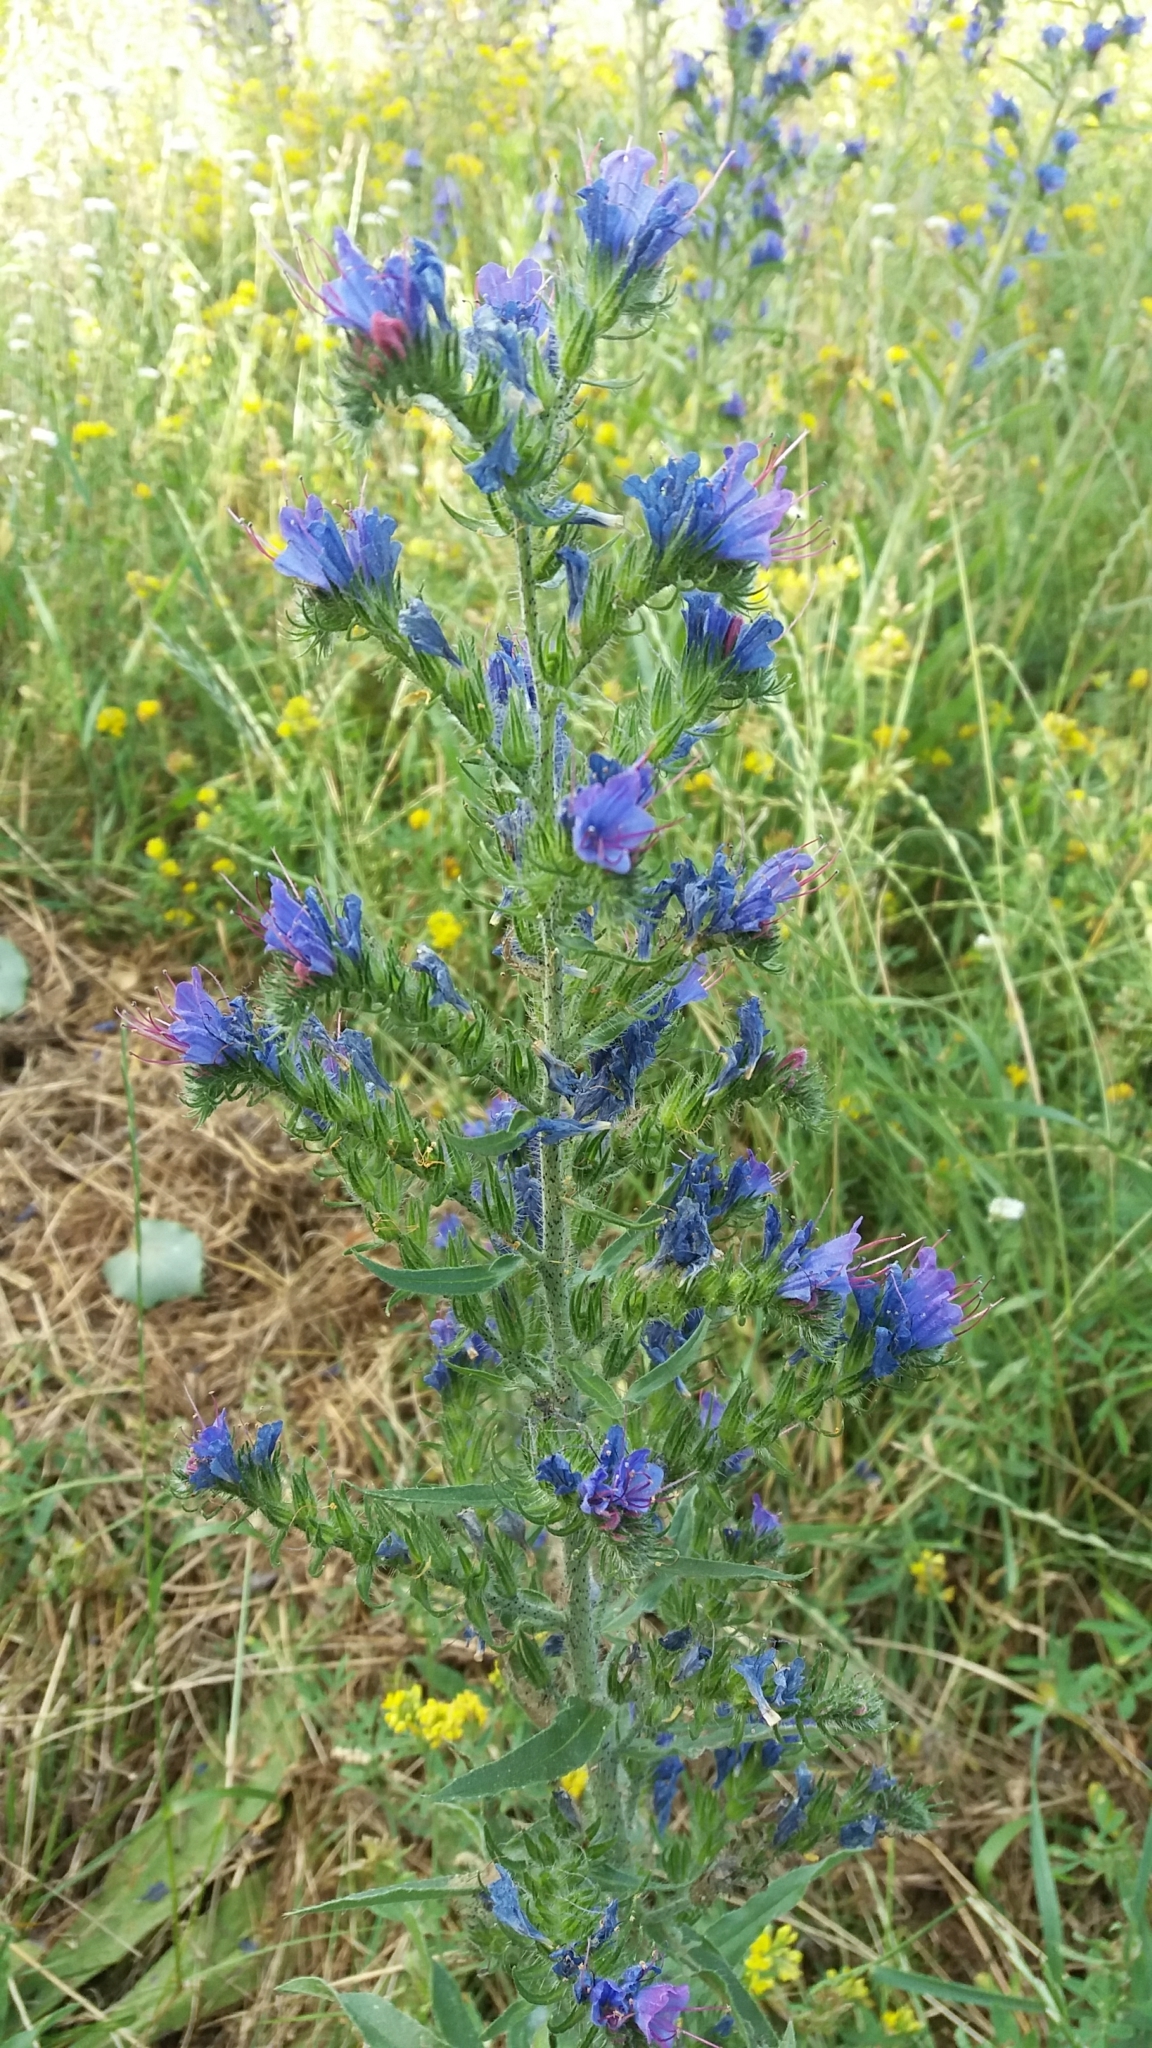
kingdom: Plantae
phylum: Tracheophyta
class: Magnoliopsida
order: Boraginales
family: Boraginaceae
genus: Echium
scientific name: Echium vulgare
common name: Common viper's bugloss
